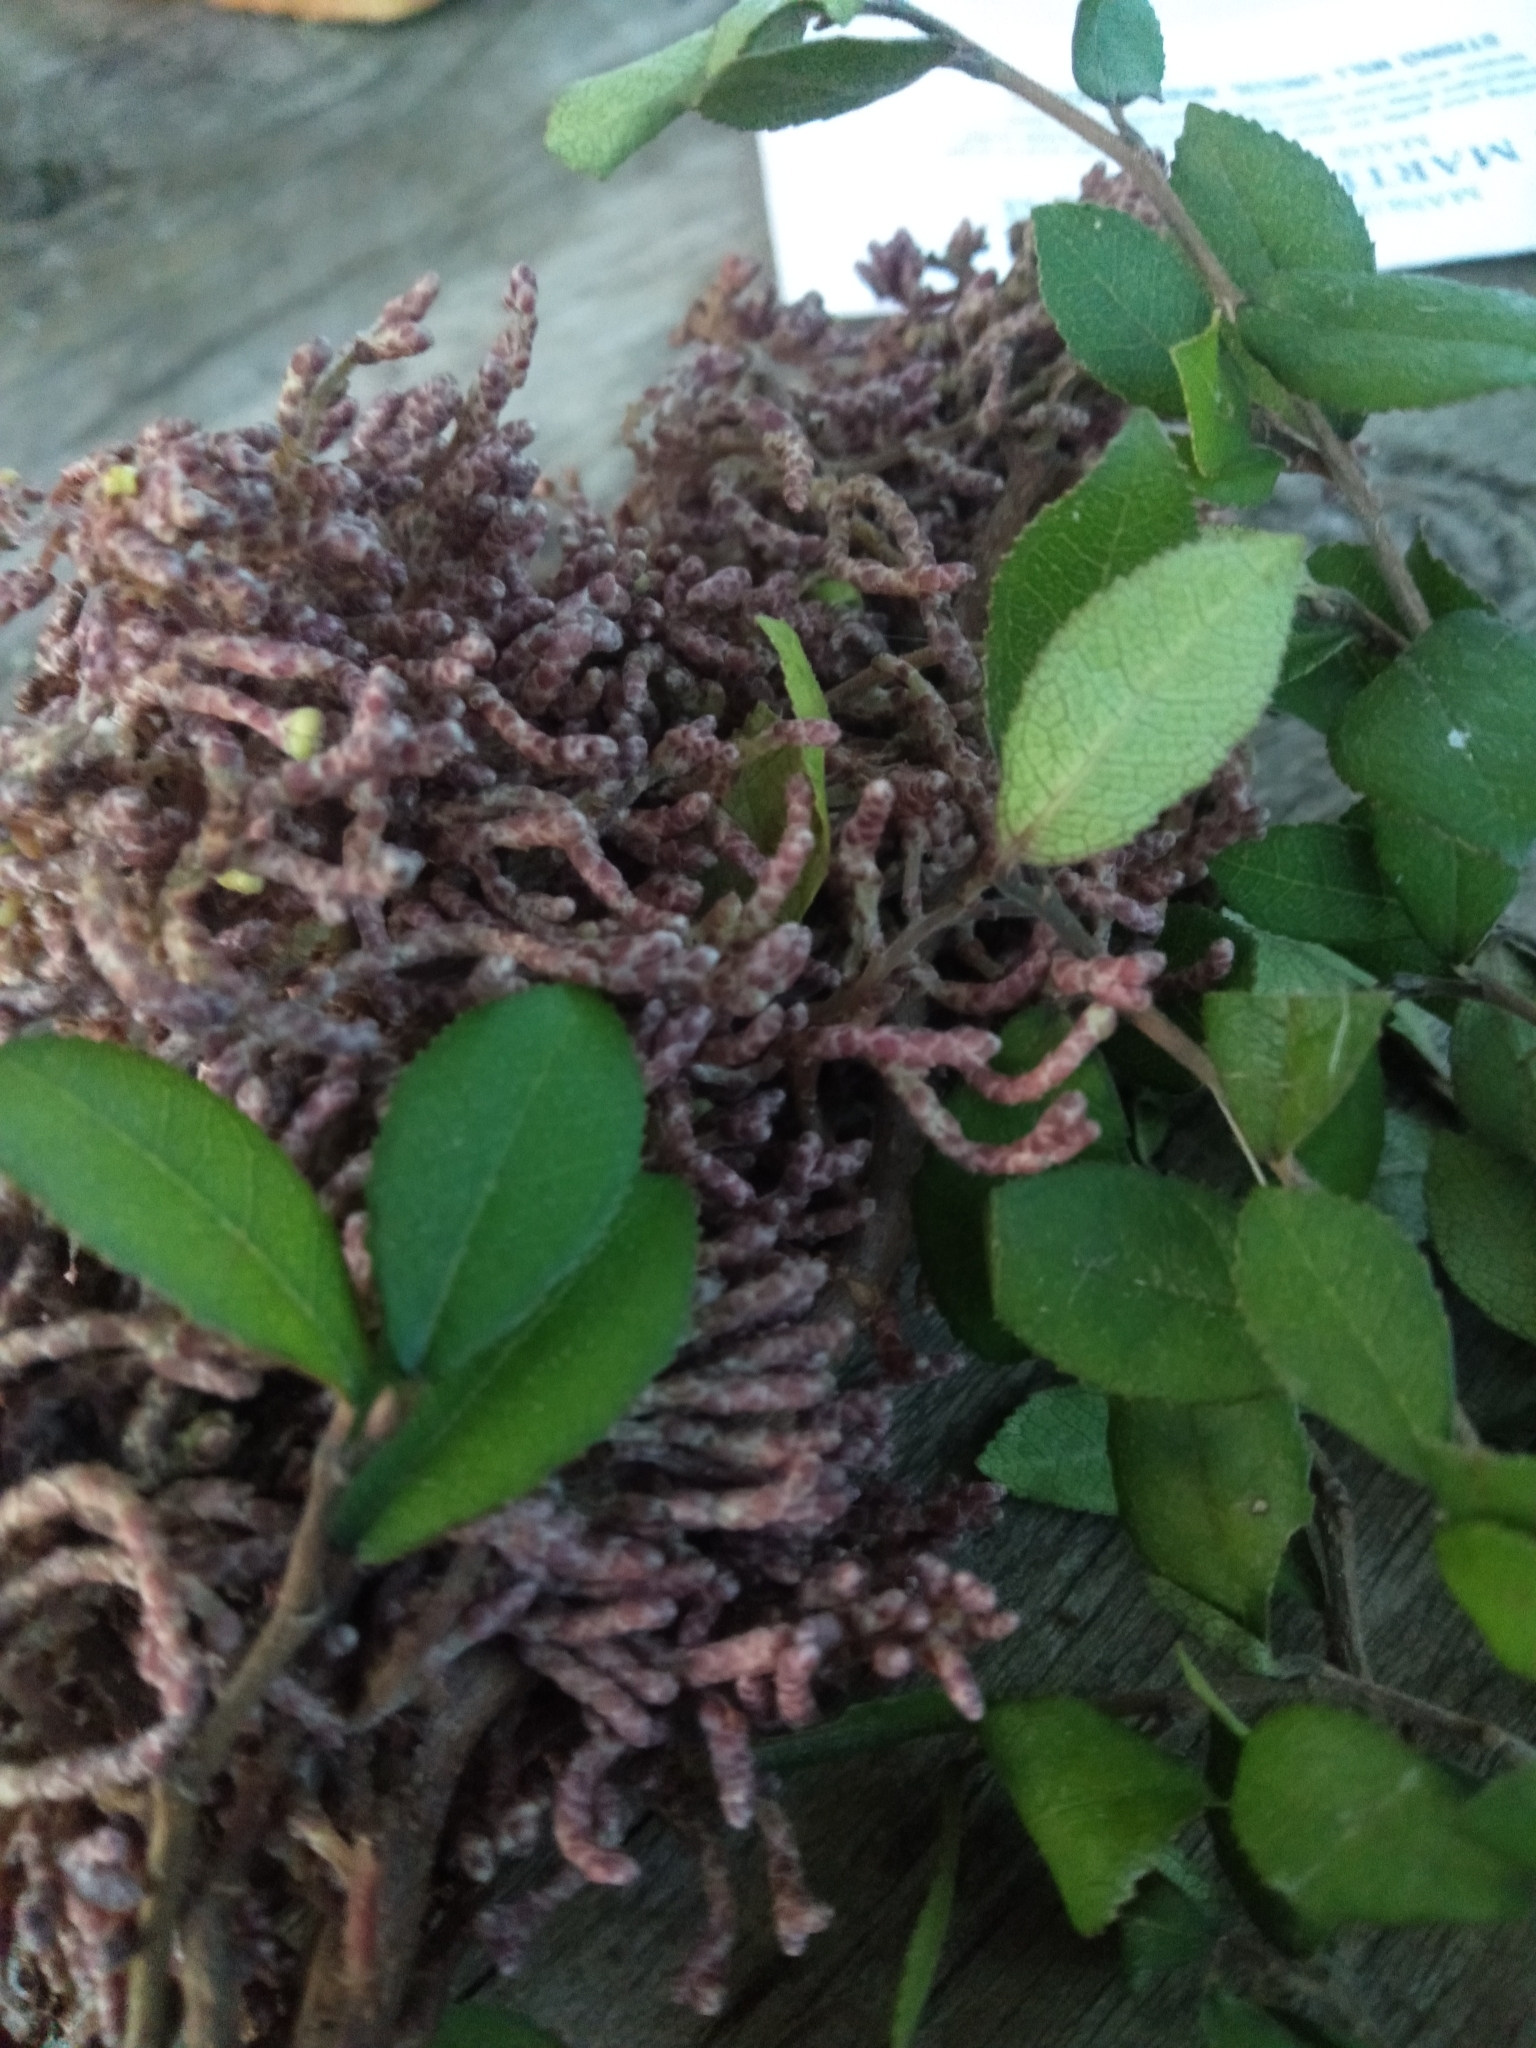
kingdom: Plantae
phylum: Tracheophyta
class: Magnoliopsida
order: Rosales
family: Moraceae
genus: Paratrophis
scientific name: Paratrophis microphylla
